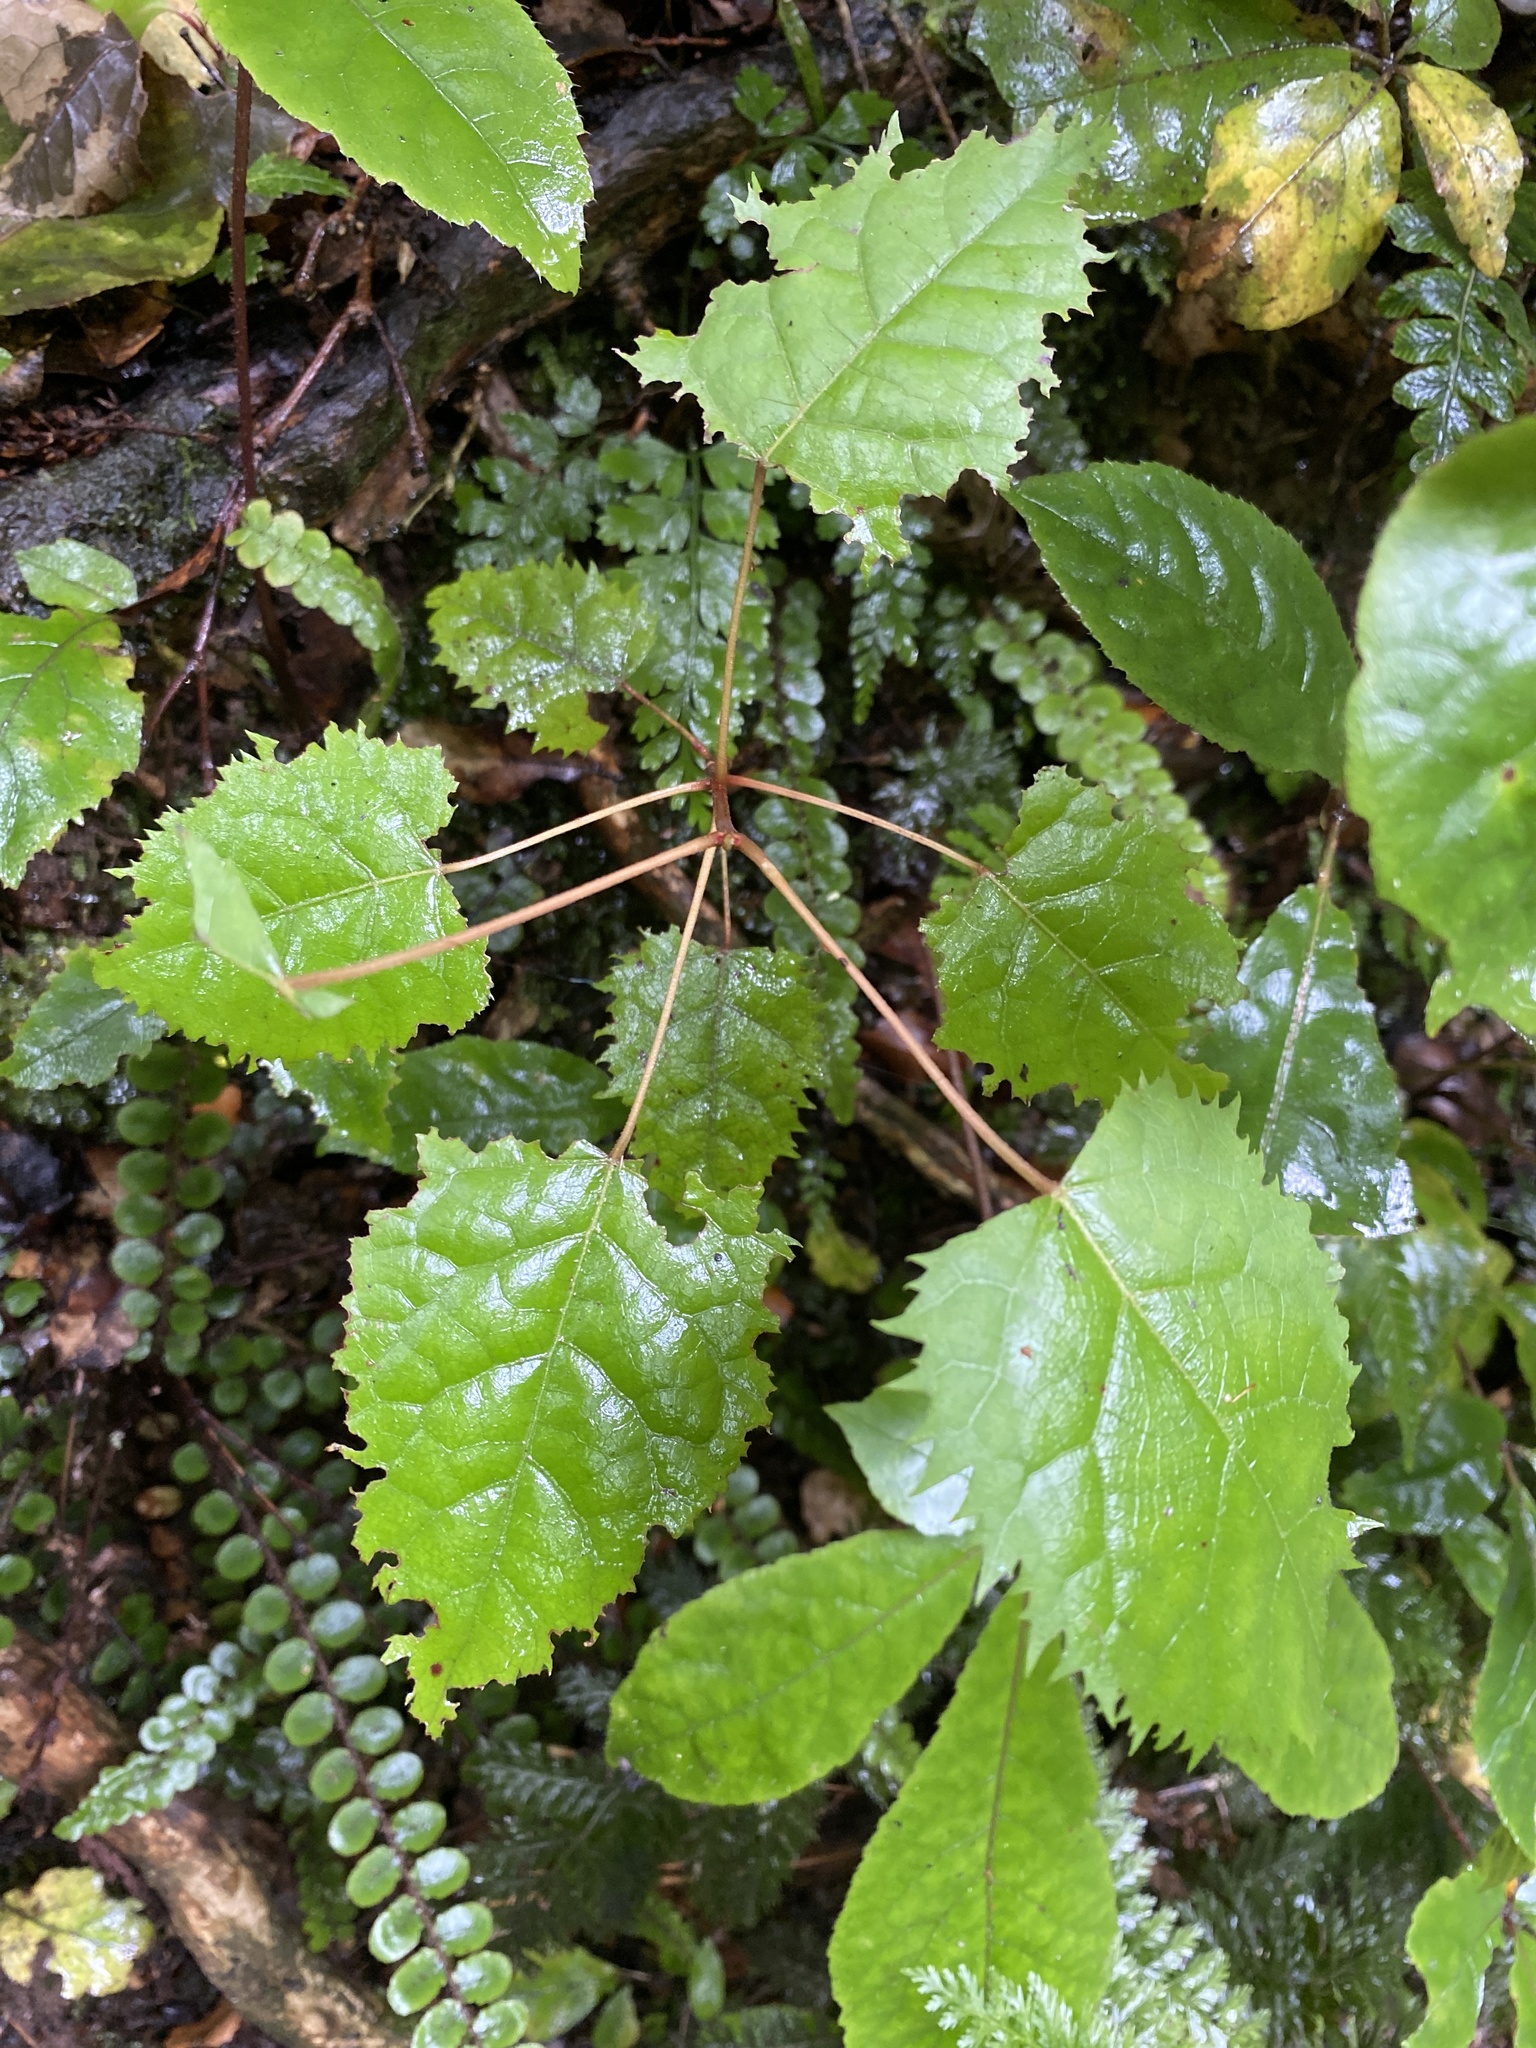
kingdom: Plantae
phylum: Tracheophyta
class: Magnoliopsida
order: Oxalidales
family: Elaeocarpaceae
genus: Aristotelia
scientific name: Aristotelia serrata
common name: New zealand wineberry
